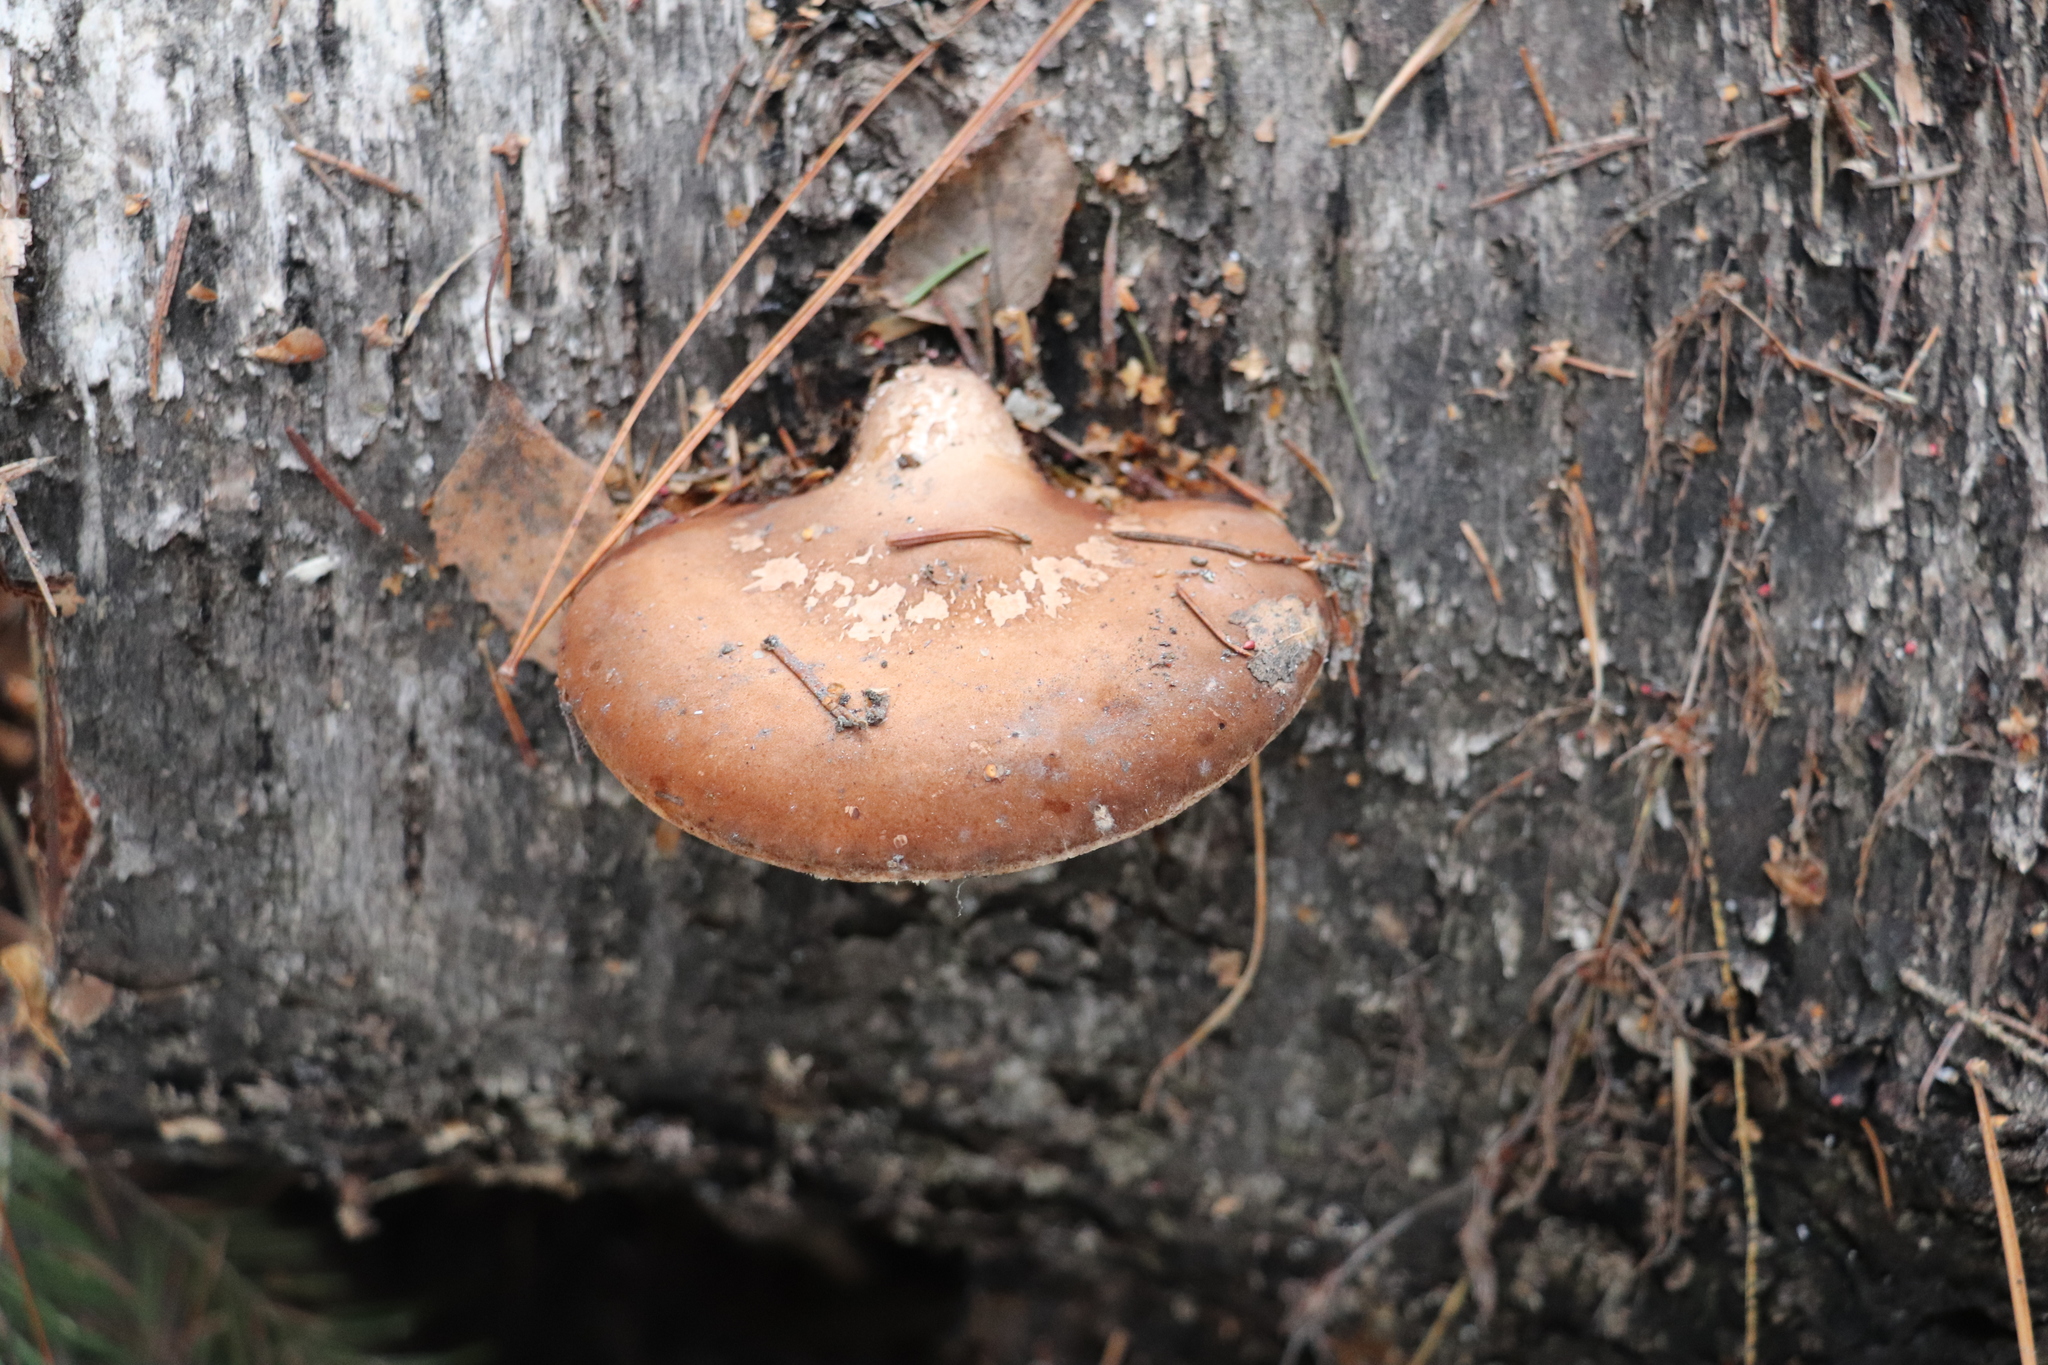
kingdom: Fungi
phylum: Basidiomycota
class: Agaricomycetes
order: Polyporales
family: Fomitopsidaceae
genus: Fomitopsis
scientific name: Fomitopsis betulina
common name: Birch polypore
